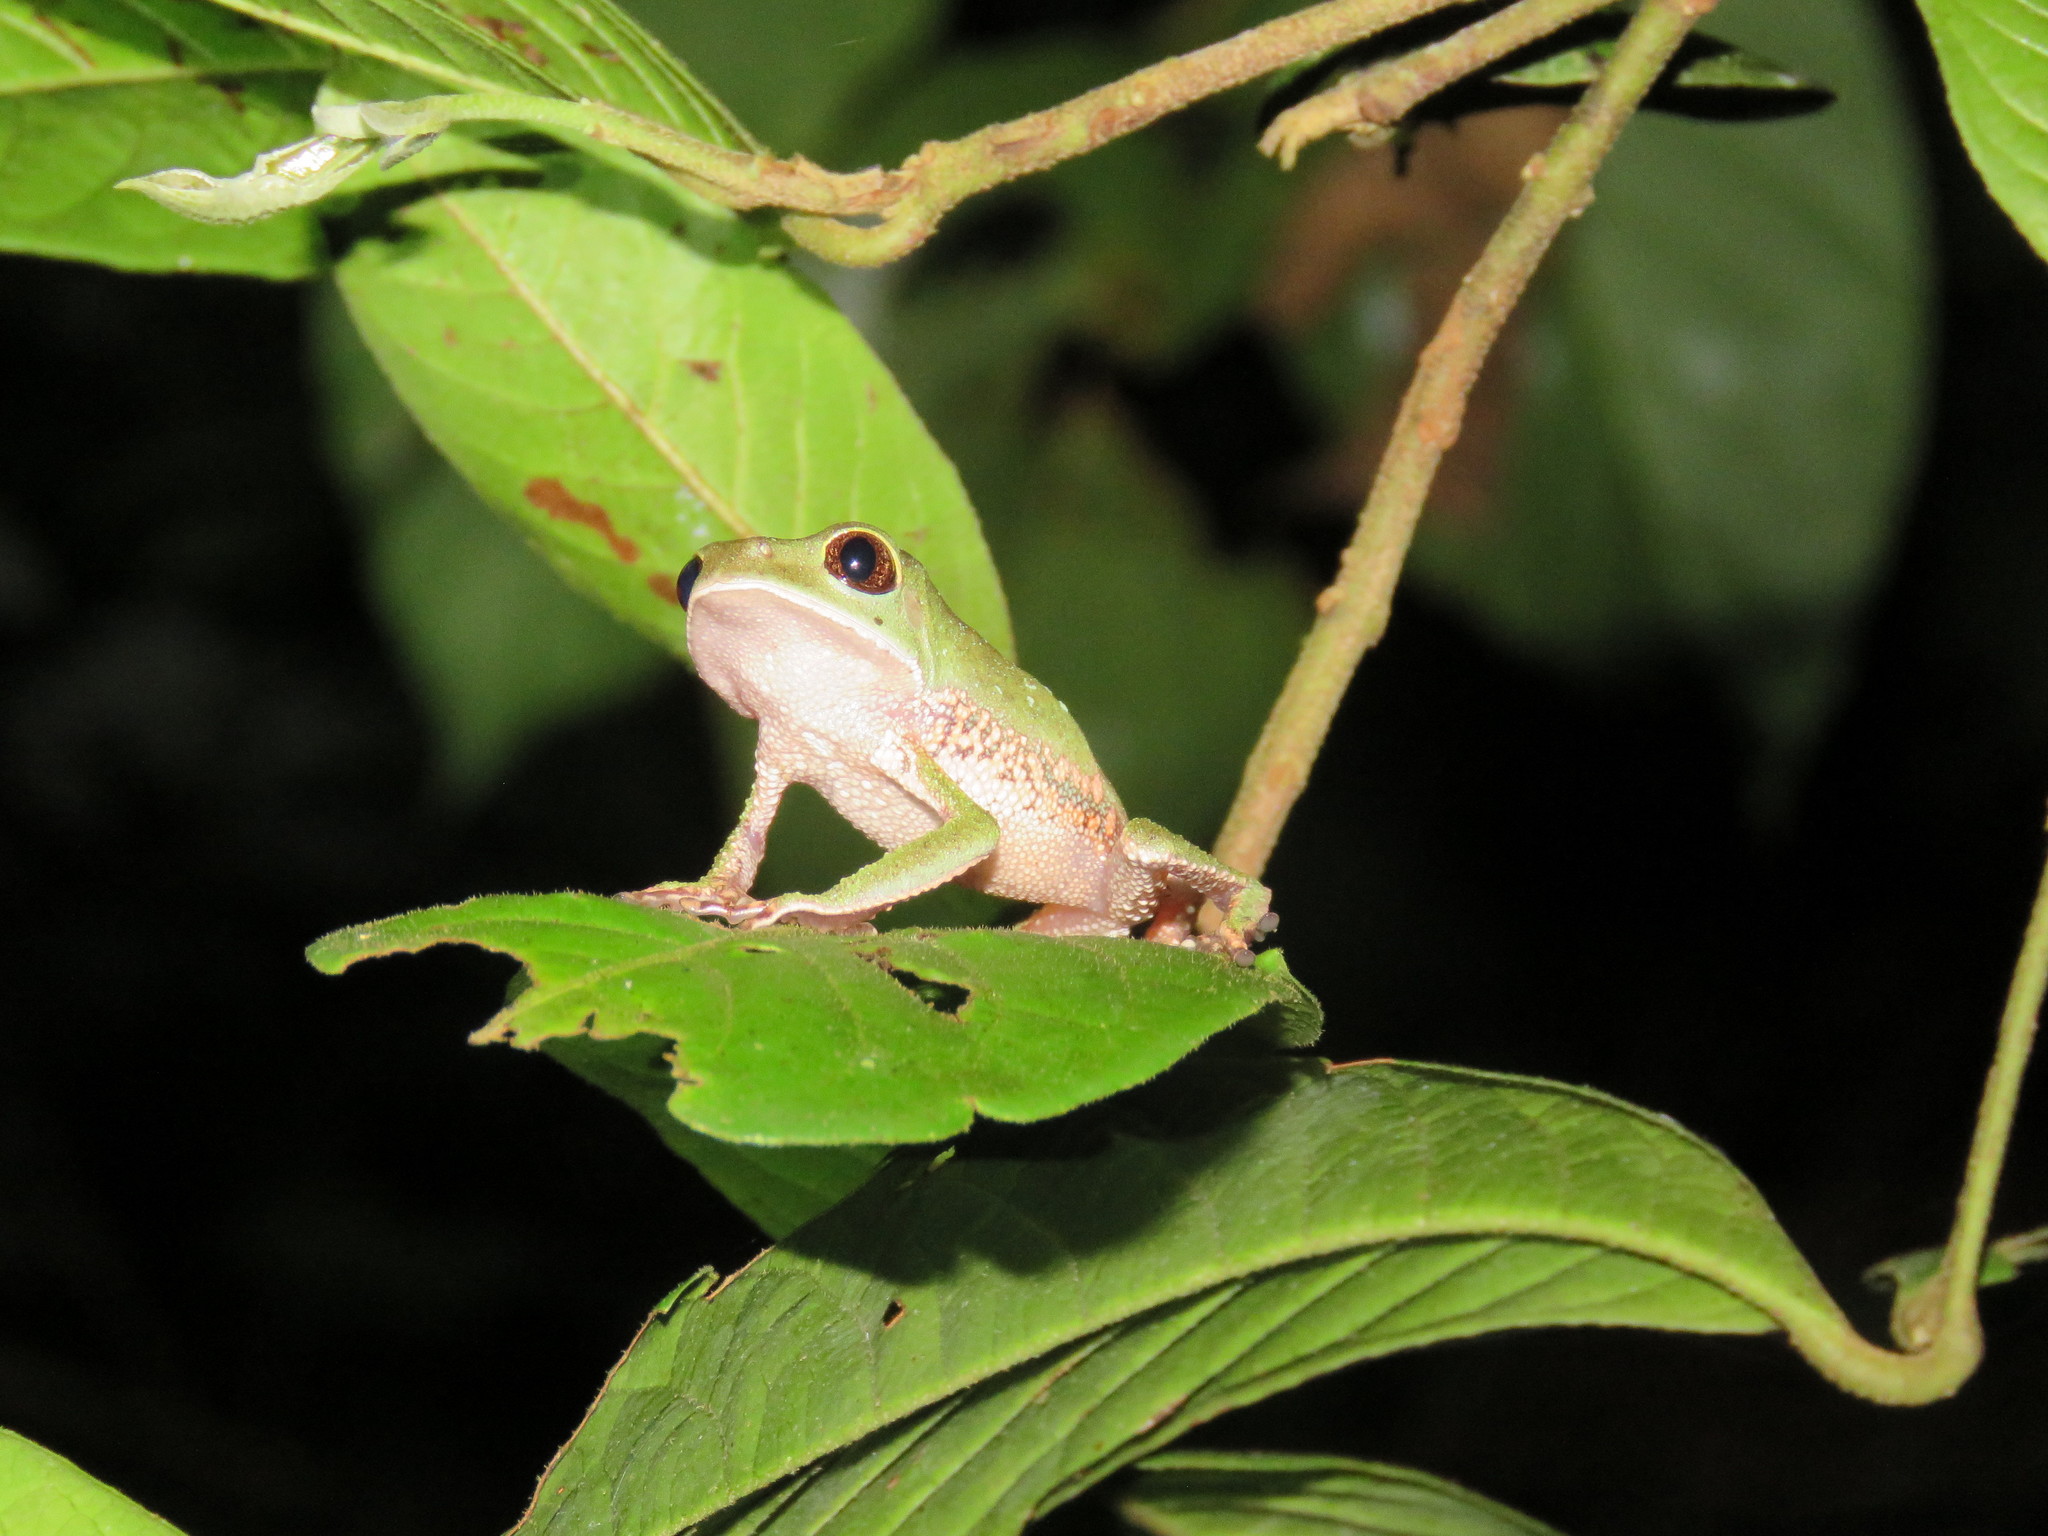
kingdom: Animalia
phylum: Chordata
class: Amphibia
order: Anura
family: Phyllomedusidae
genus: Phyllomedusa
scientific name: Phyllomedusa tarsius
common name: Brownbelly leaf frog
